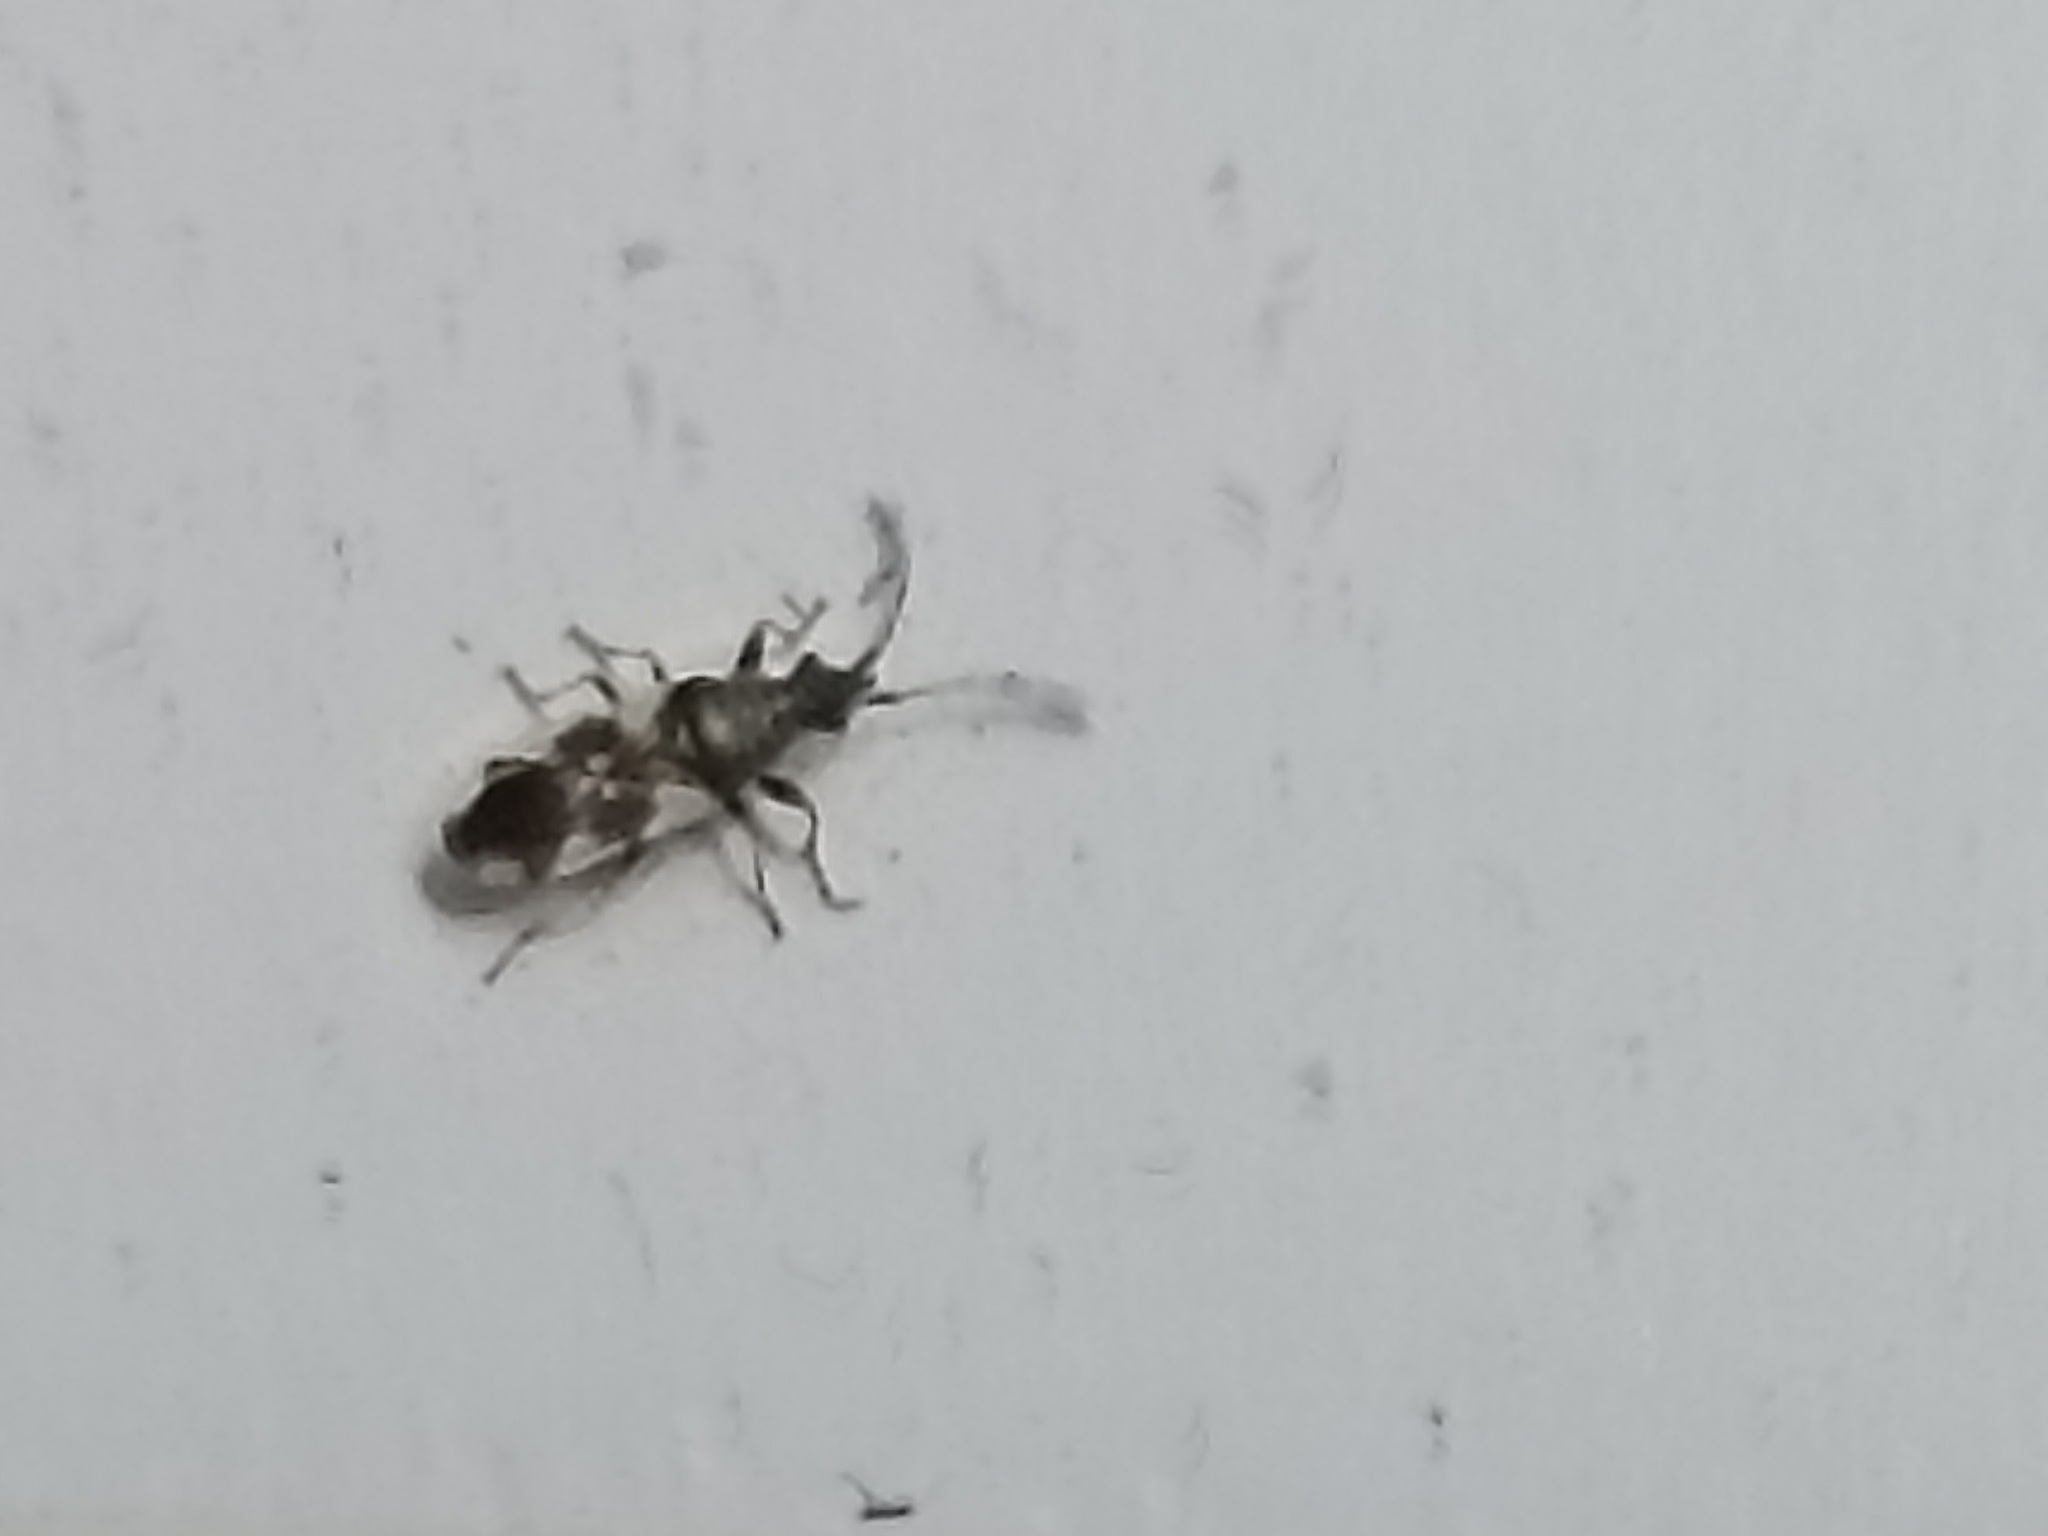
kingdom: Animalia
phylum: Arthropoda
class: Insecta
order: Hemiptera
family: Oxycarenidae
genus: Macroplax
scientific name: Macroplax
